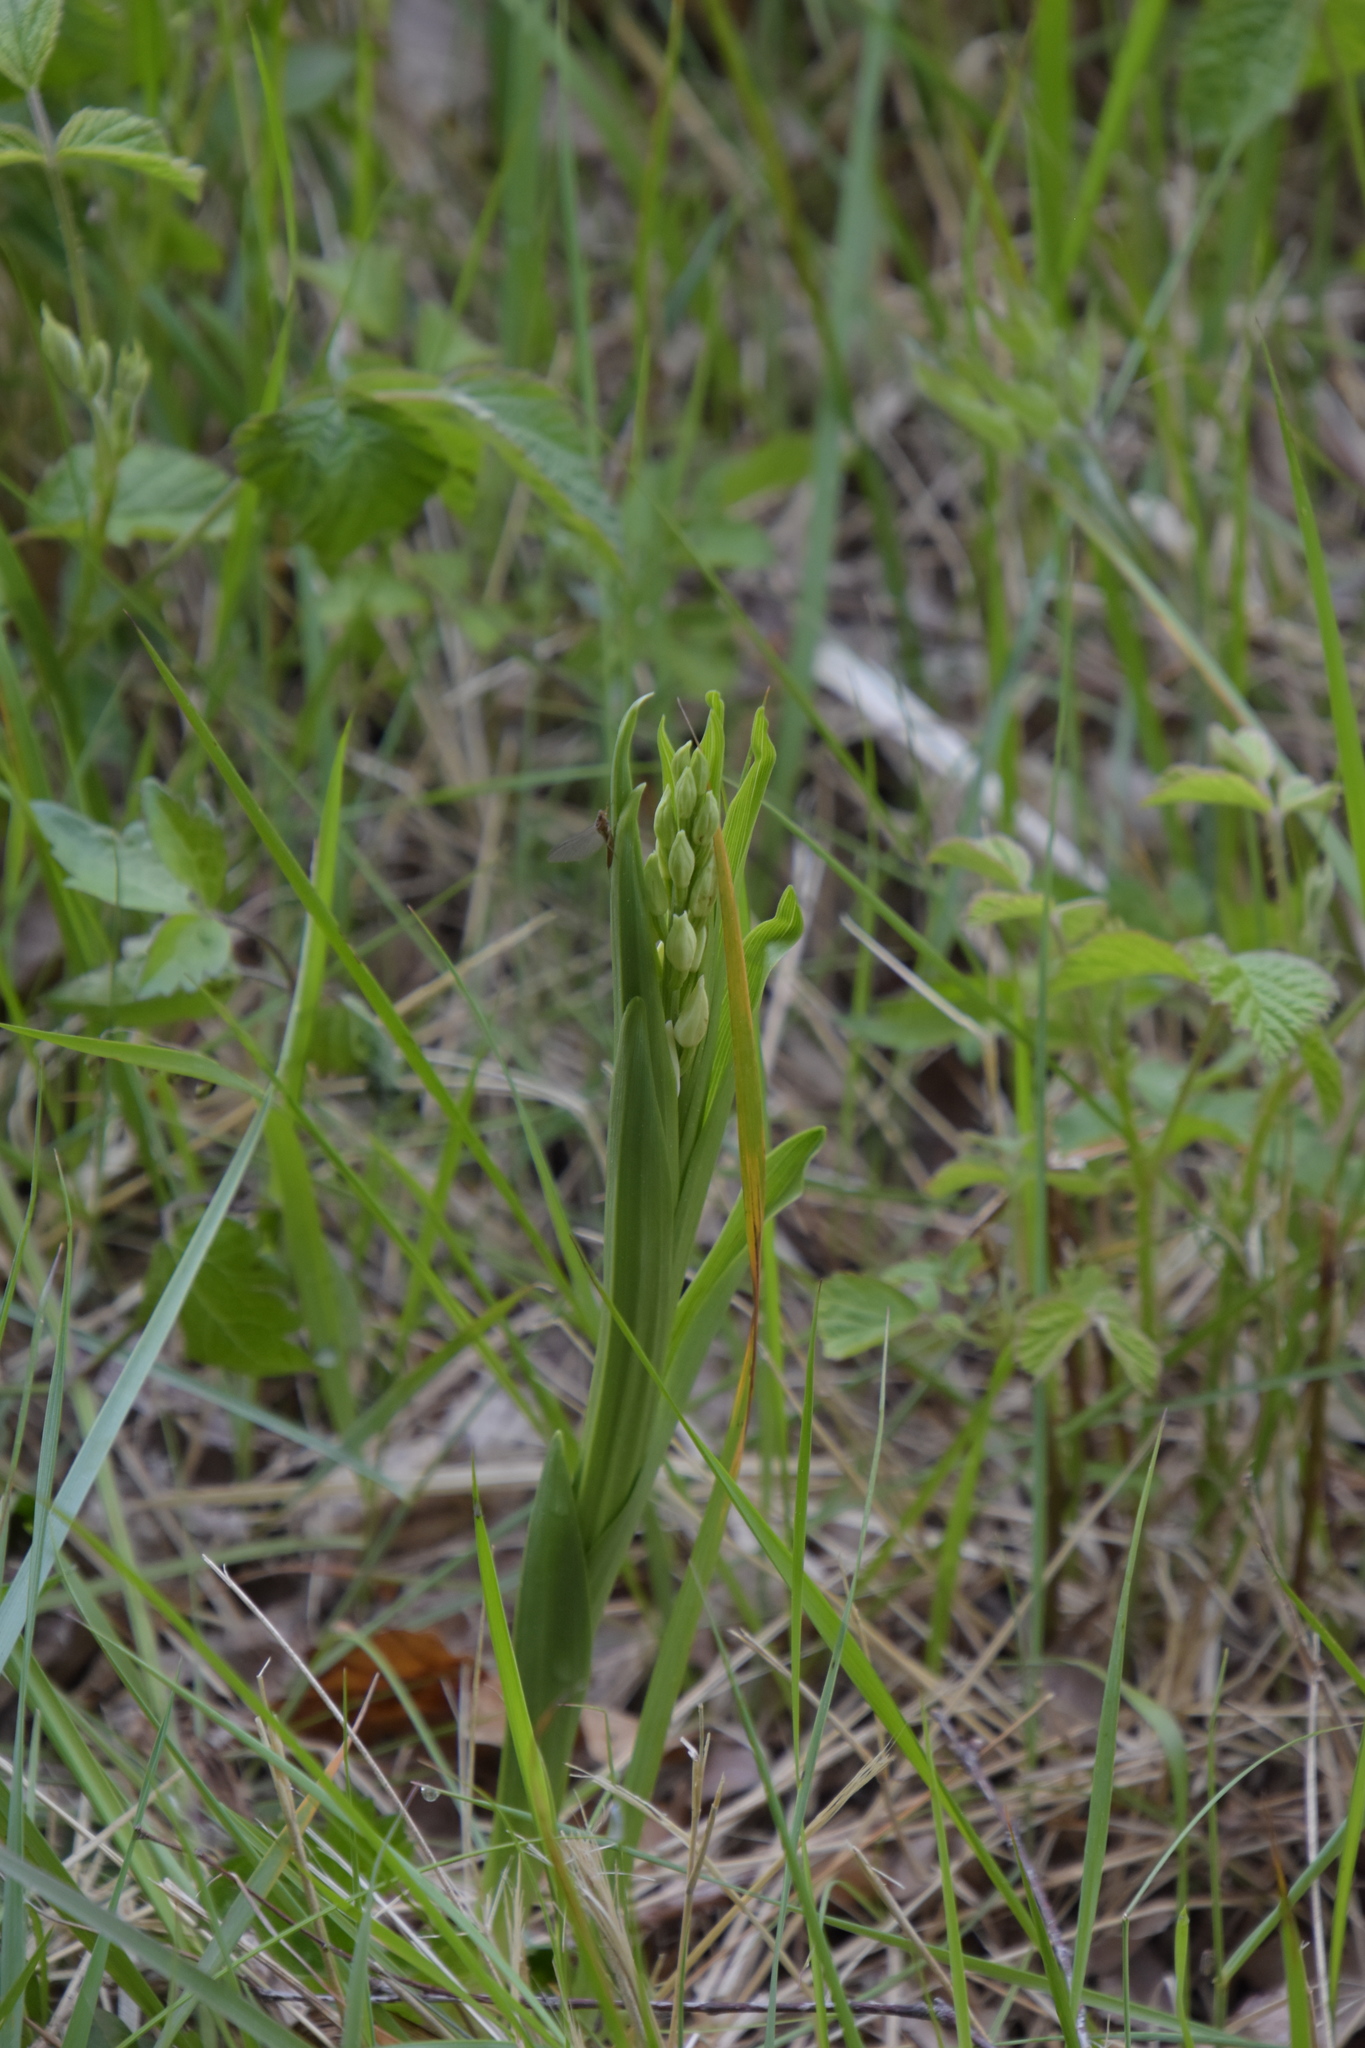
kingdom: Plantae
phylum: Tracheophyta
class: Liliopsida
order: Asparagales
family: Orchidaceae
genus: Cephalanthera
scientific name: Cephalanthera longifolia
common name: Narrow-leaved helleborine
